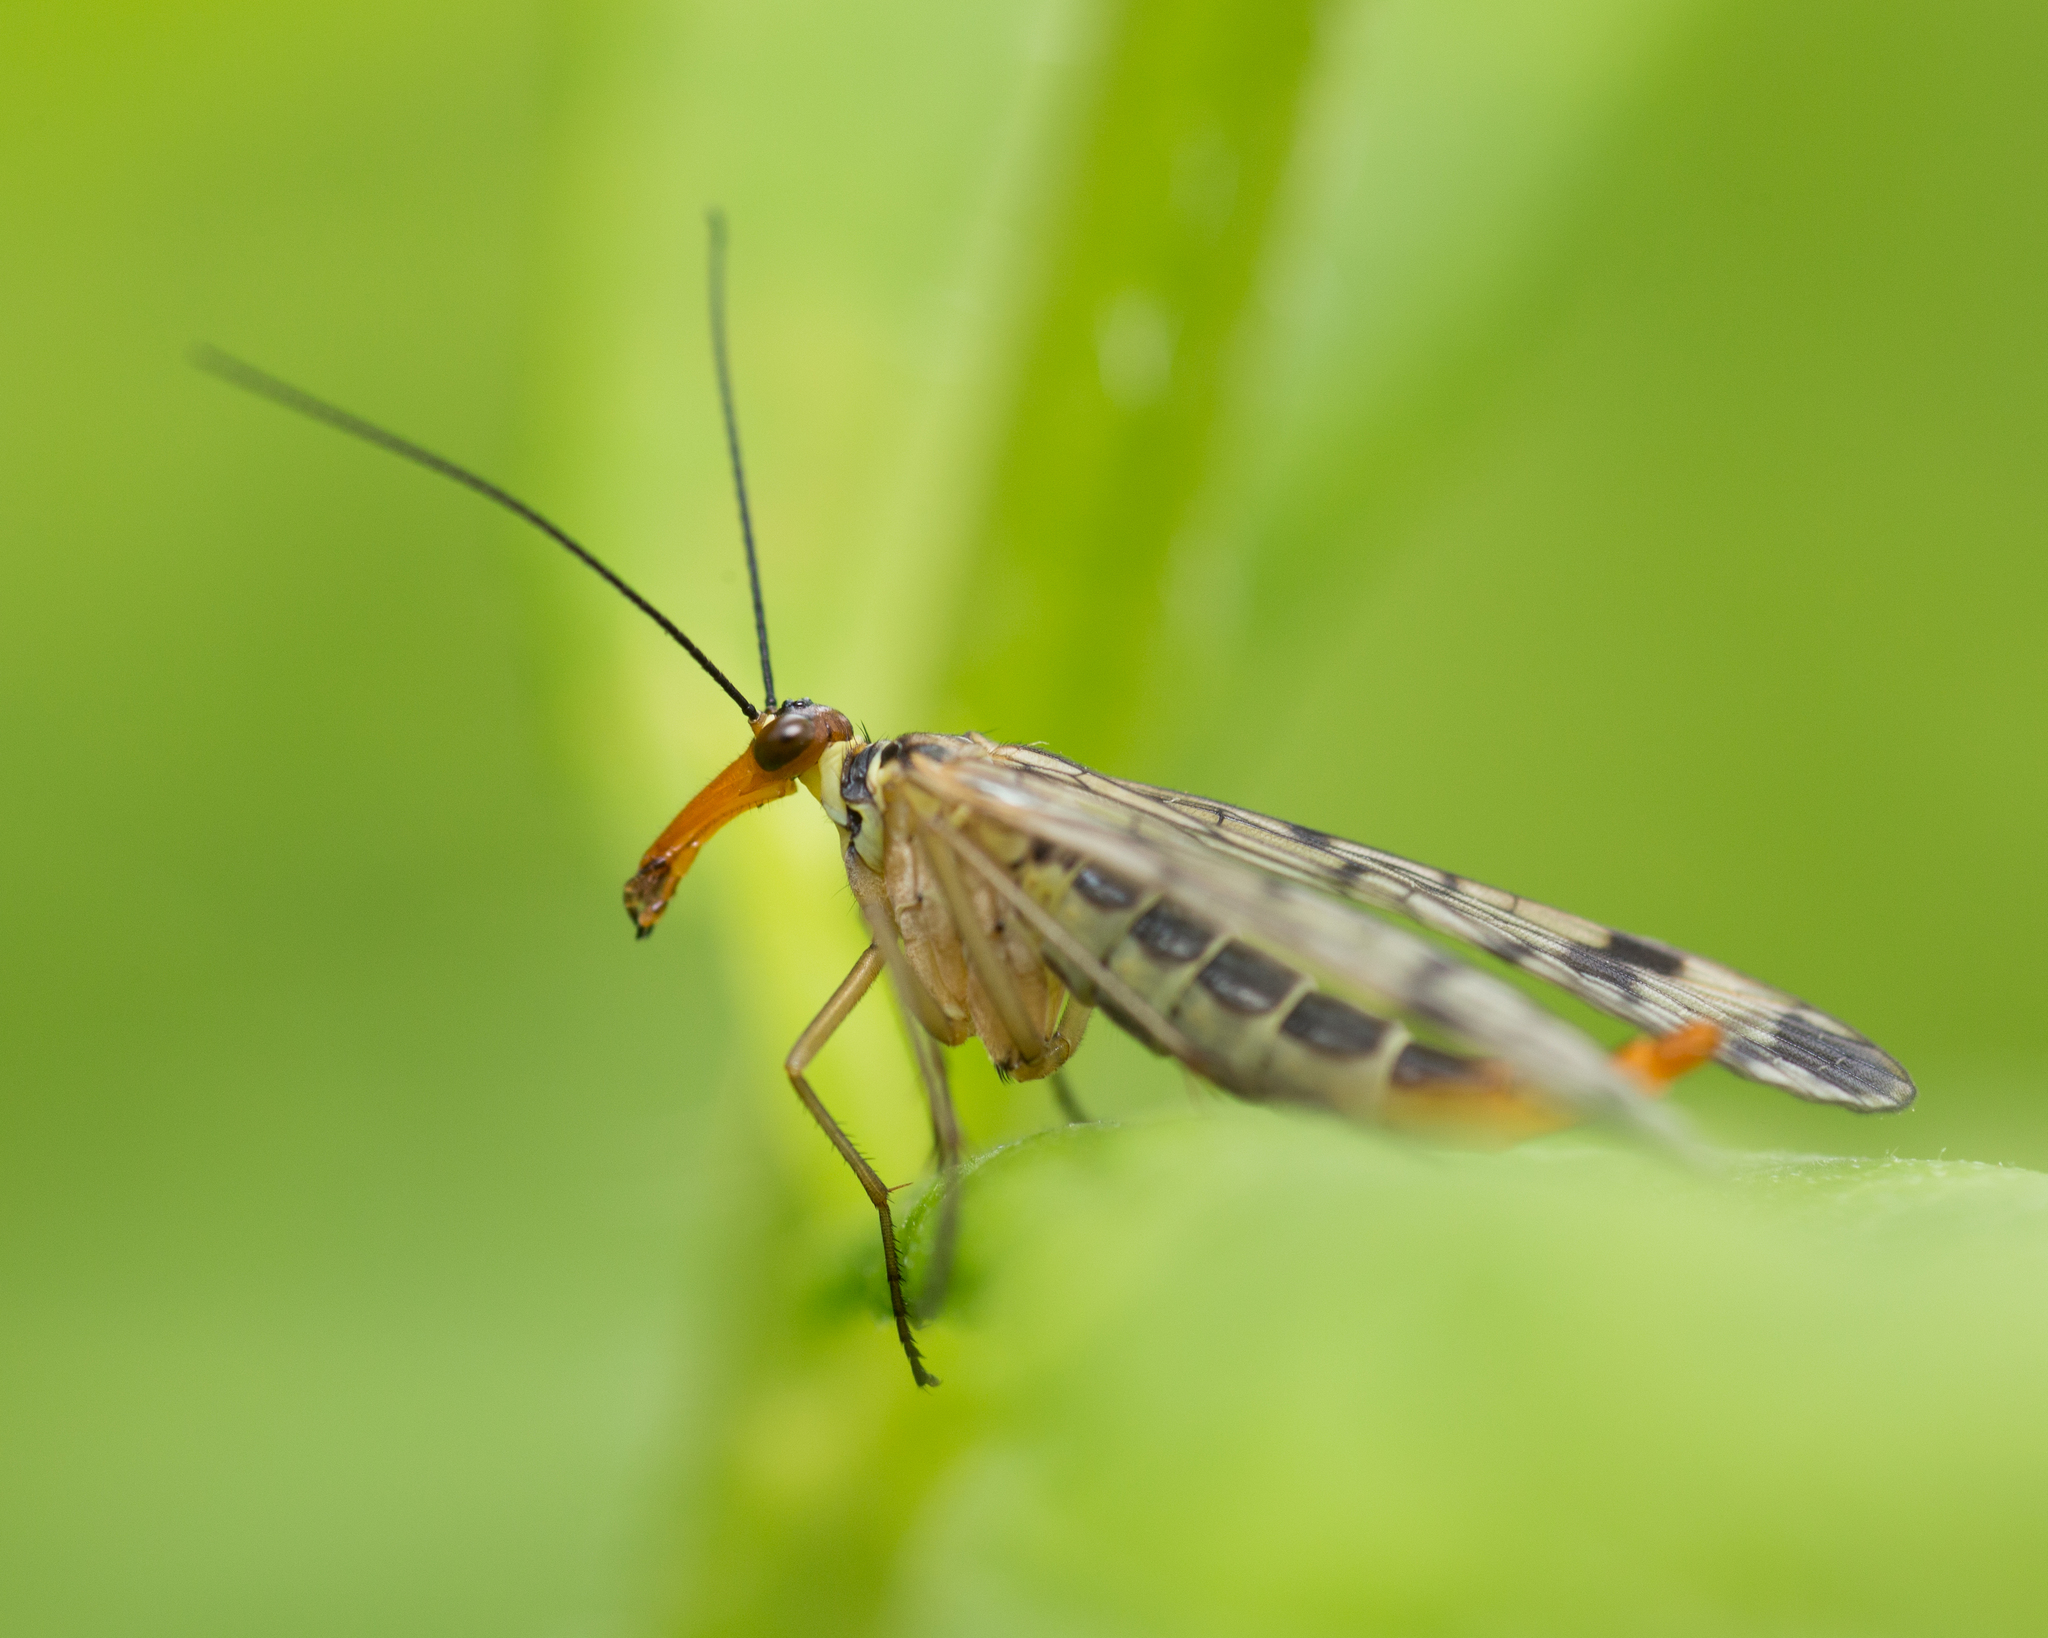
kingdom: Animalia
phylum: Arthropoda
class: Insecta
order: Mecoptera
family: Panorpidae
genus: Panorpa
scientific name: Panorpa communis
